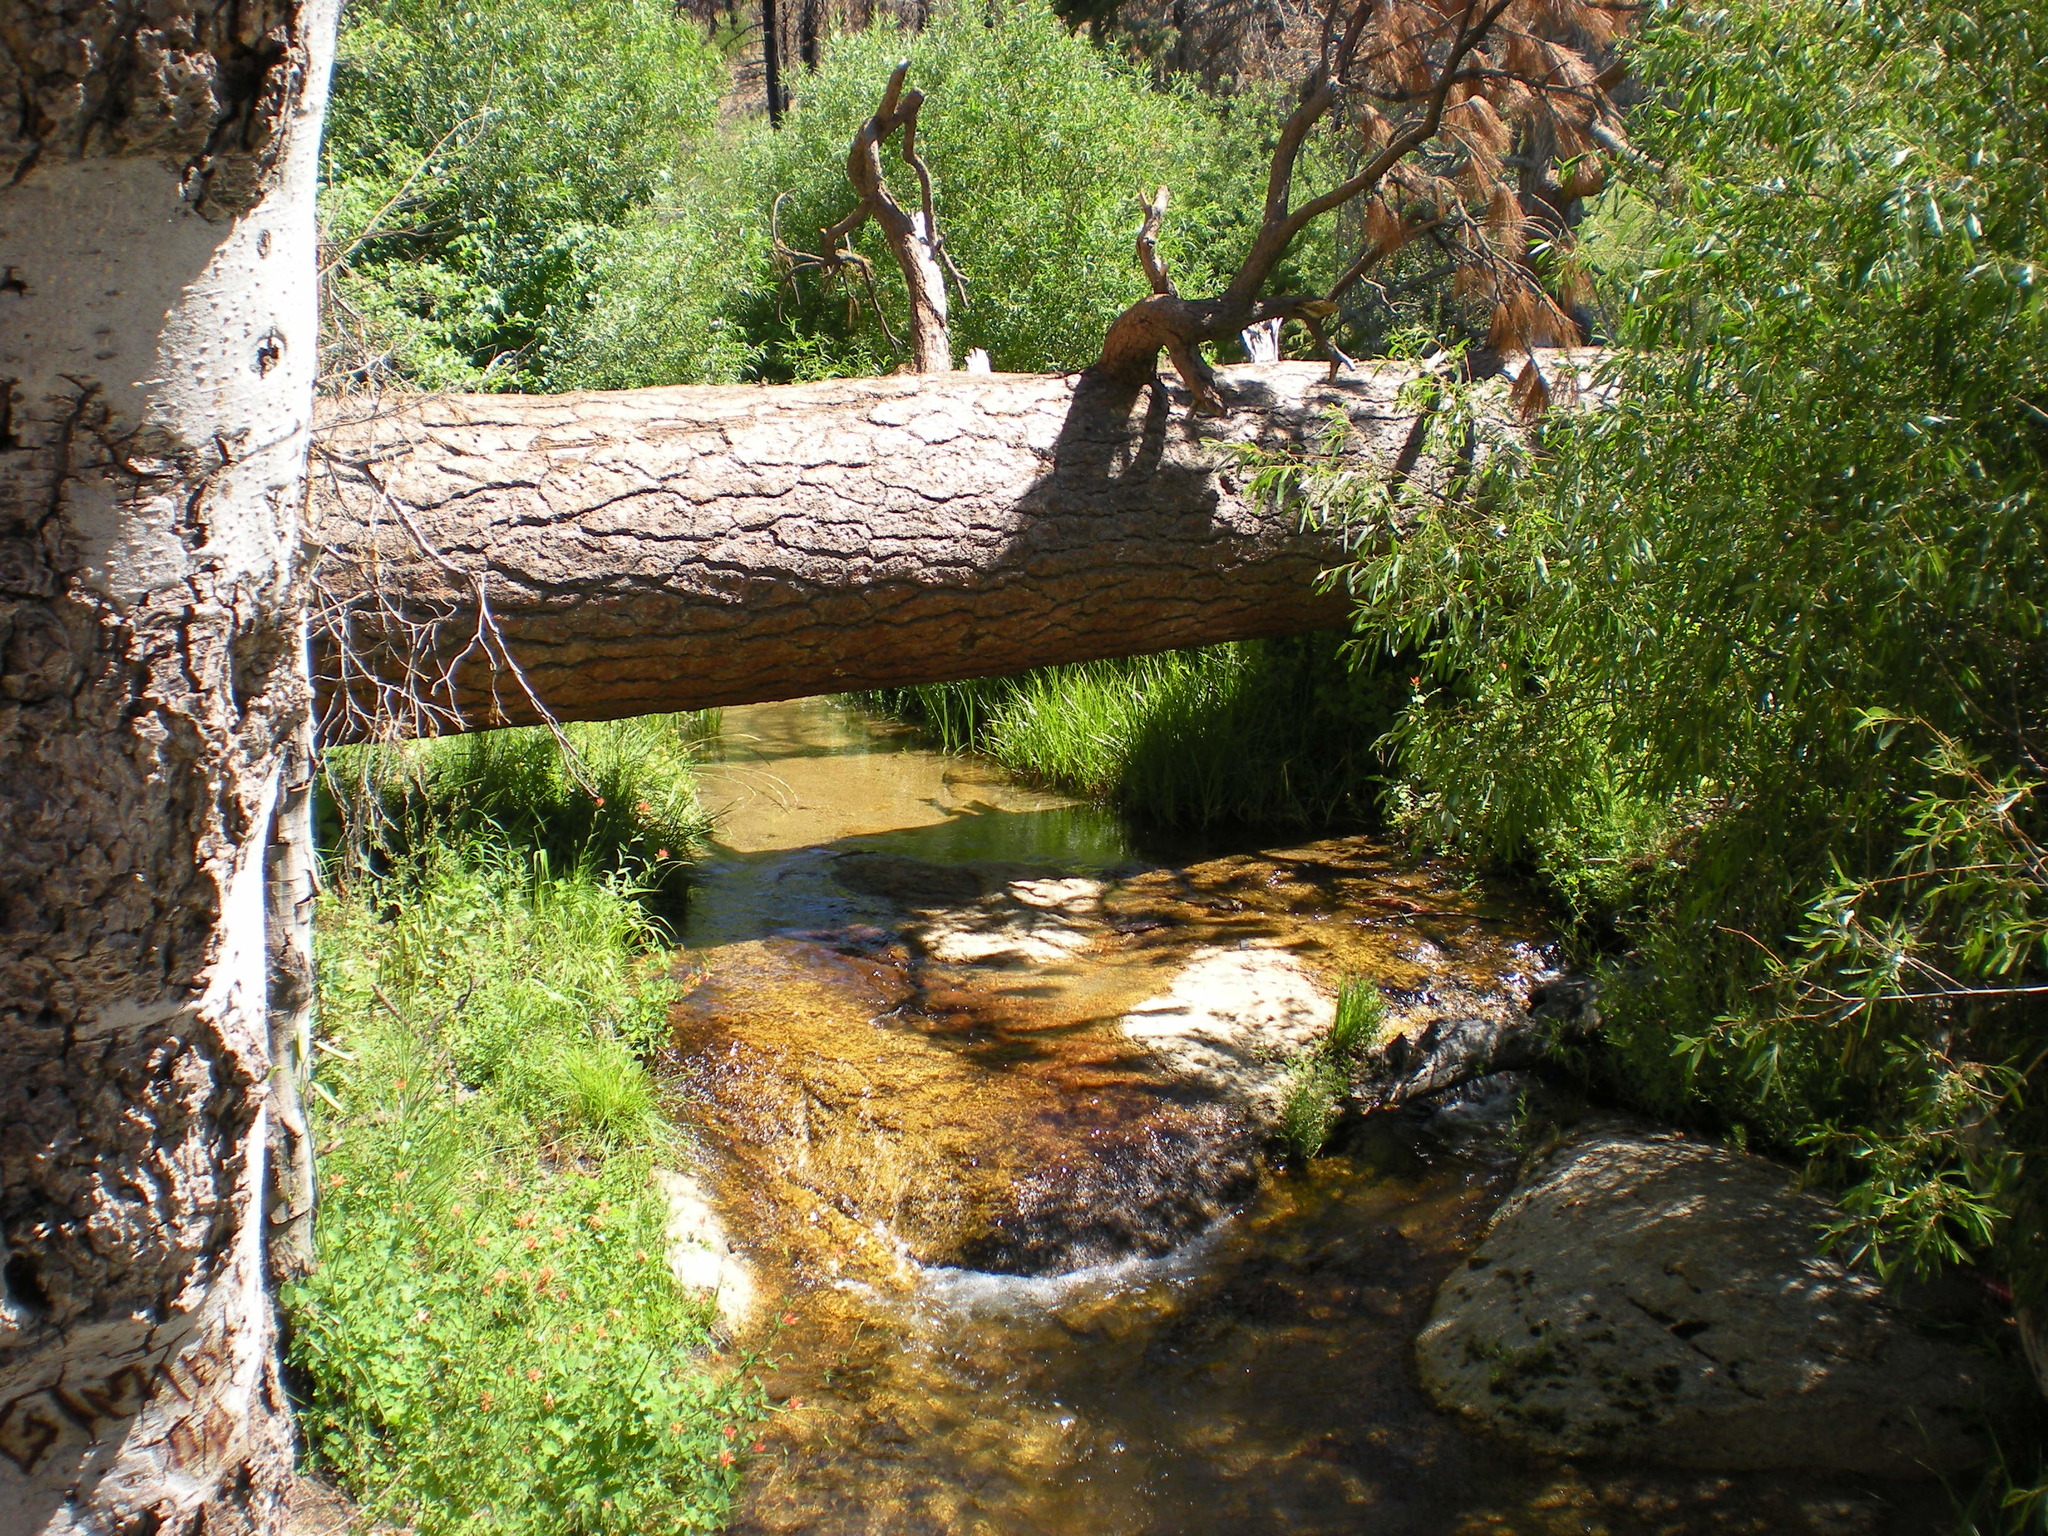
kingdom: Plantae
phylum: Tracheophyta
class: Magnoliopsida
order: Ranunculales
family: Ranunculaceae
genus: Aquilegia
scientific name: Aquilegia formosa
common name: Sitka columbine
